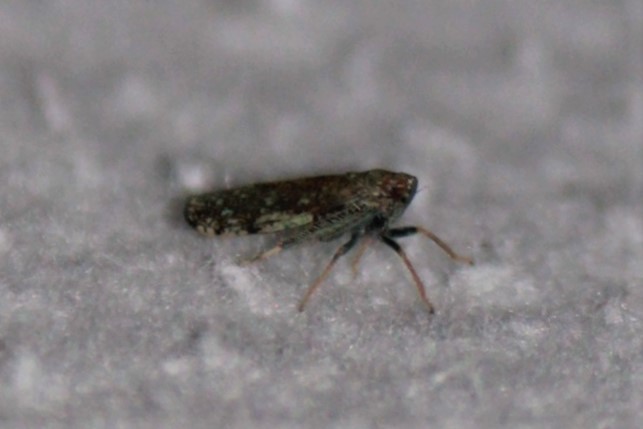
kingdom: Animalia
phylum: Arthropoda
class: Insecta
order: Hemiptera
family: Cicadellidae
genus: Orientus
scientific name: Orientus ishidae
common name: Japanese leafhopper
